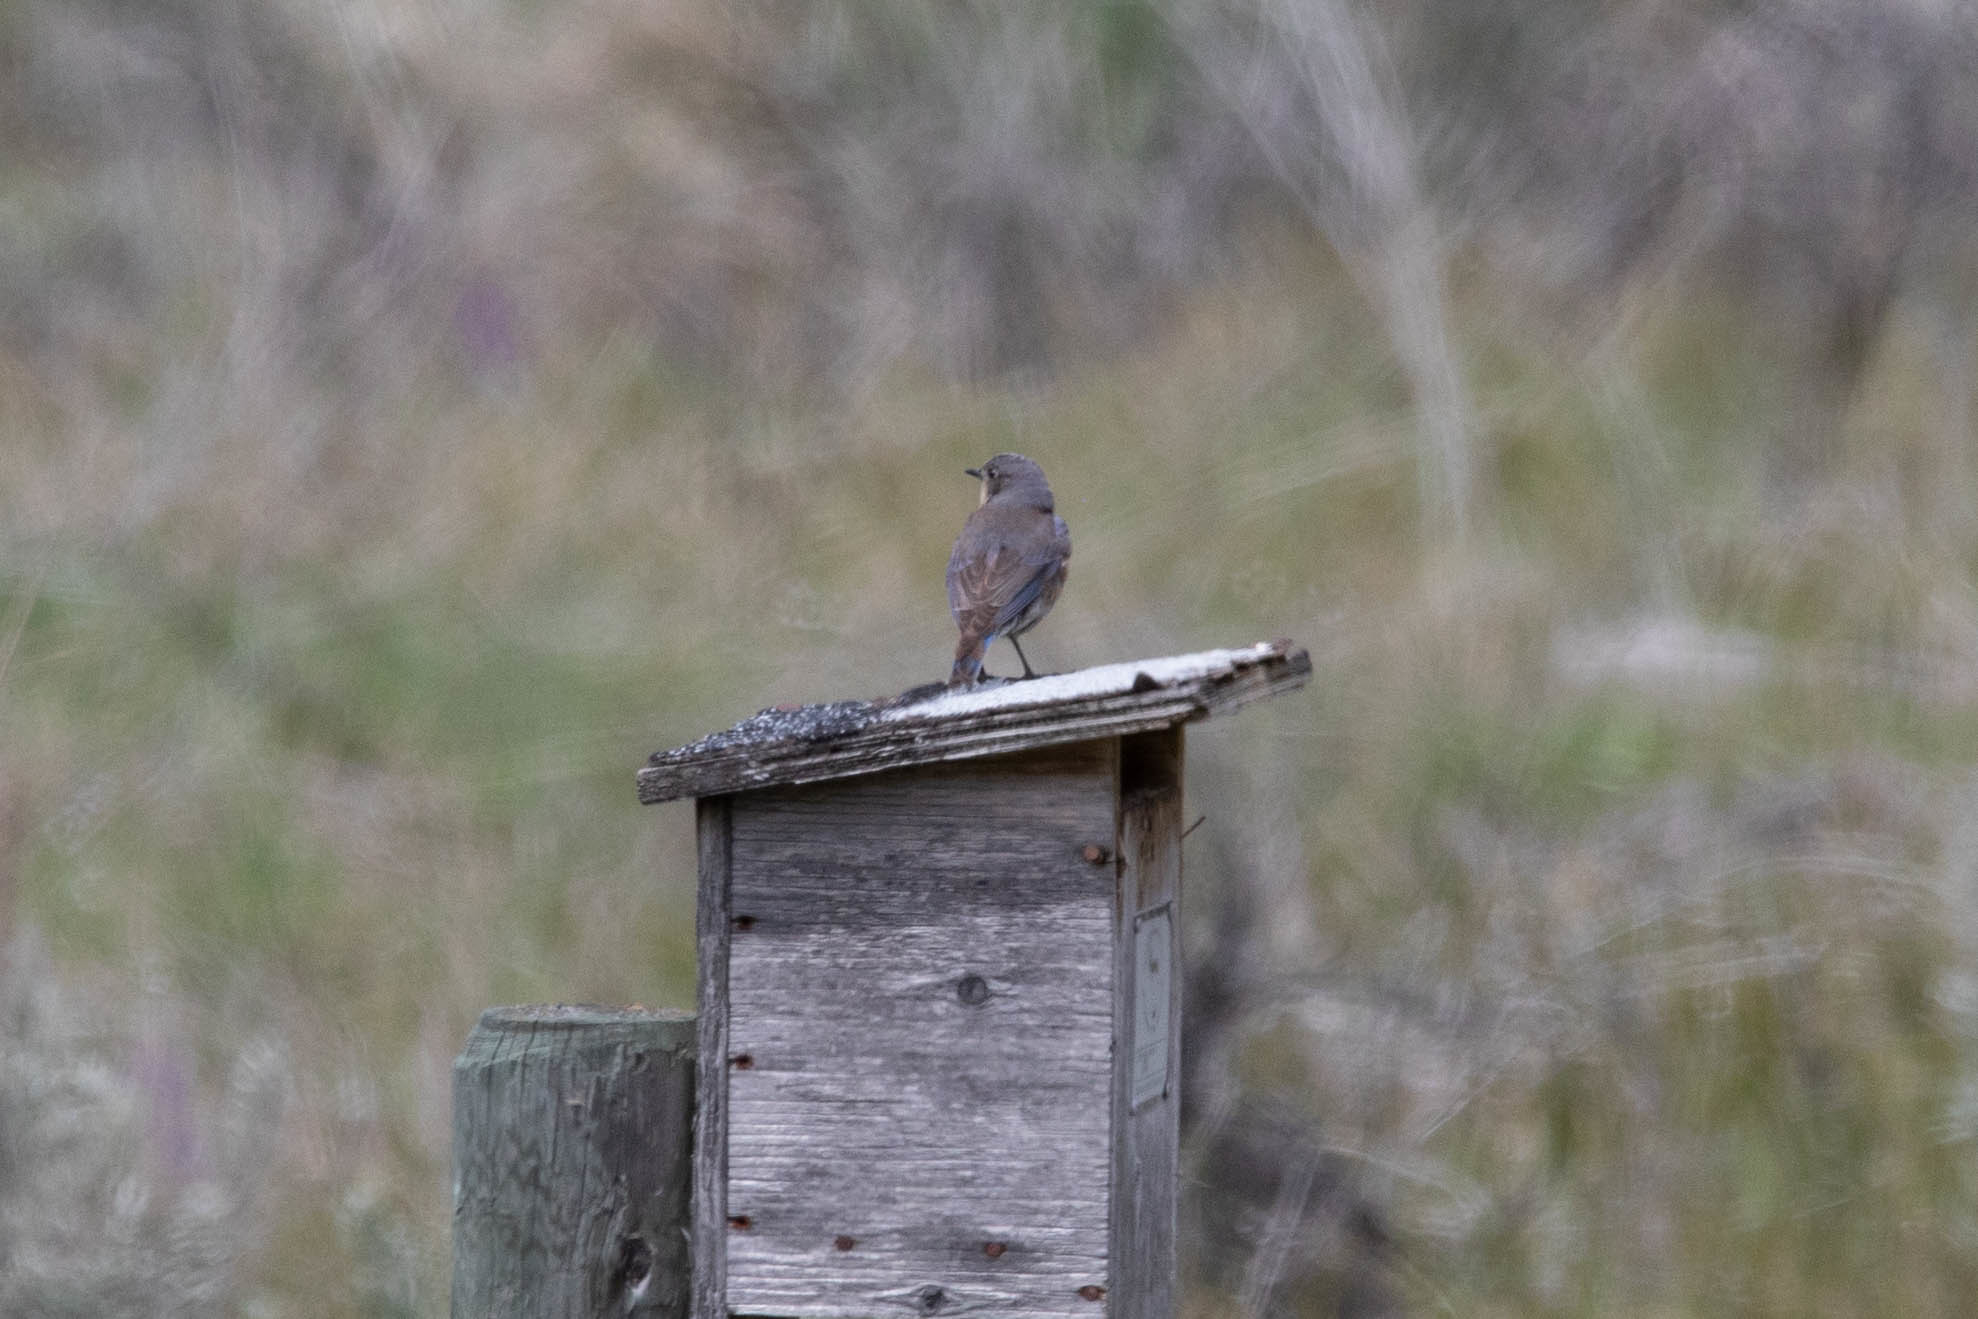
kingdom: Animalia
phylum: Chordata
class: Aves
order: Passeriformes
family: Turdidae
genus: Sialia
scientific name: Sialia mexicana
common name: Western bluebird
